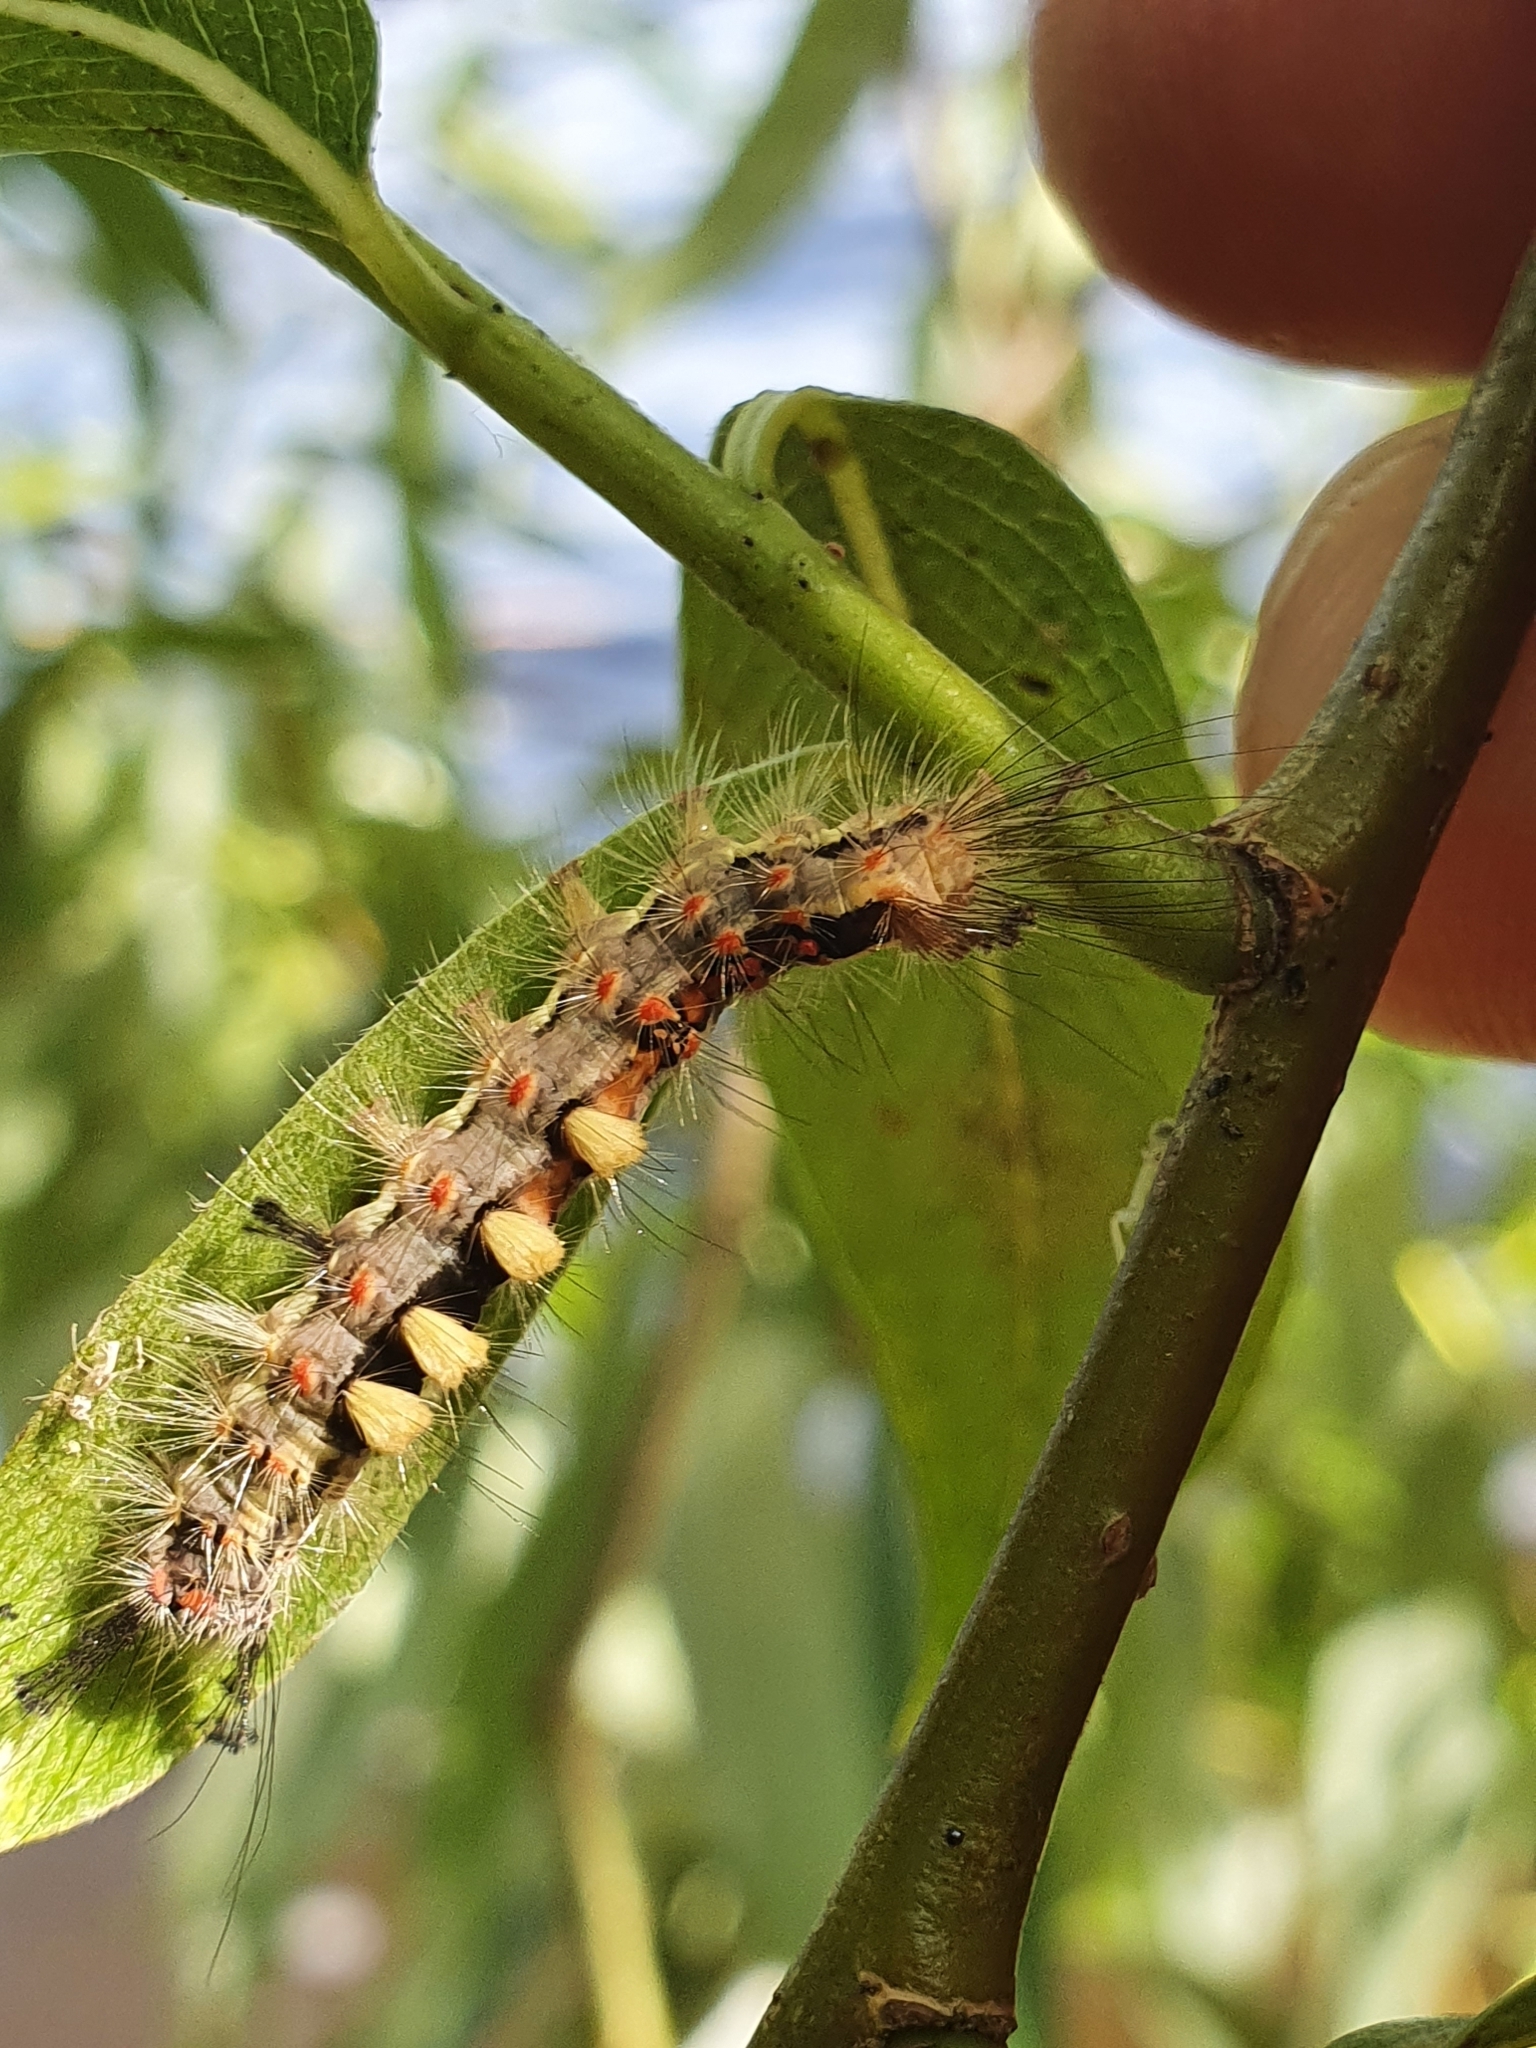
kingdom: Animalia
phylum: Arthropoda
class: Insecta
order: Lepidoptera
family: Erebidae
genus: Orgyia
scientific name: Orgyia antiqua
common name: Vapourer
